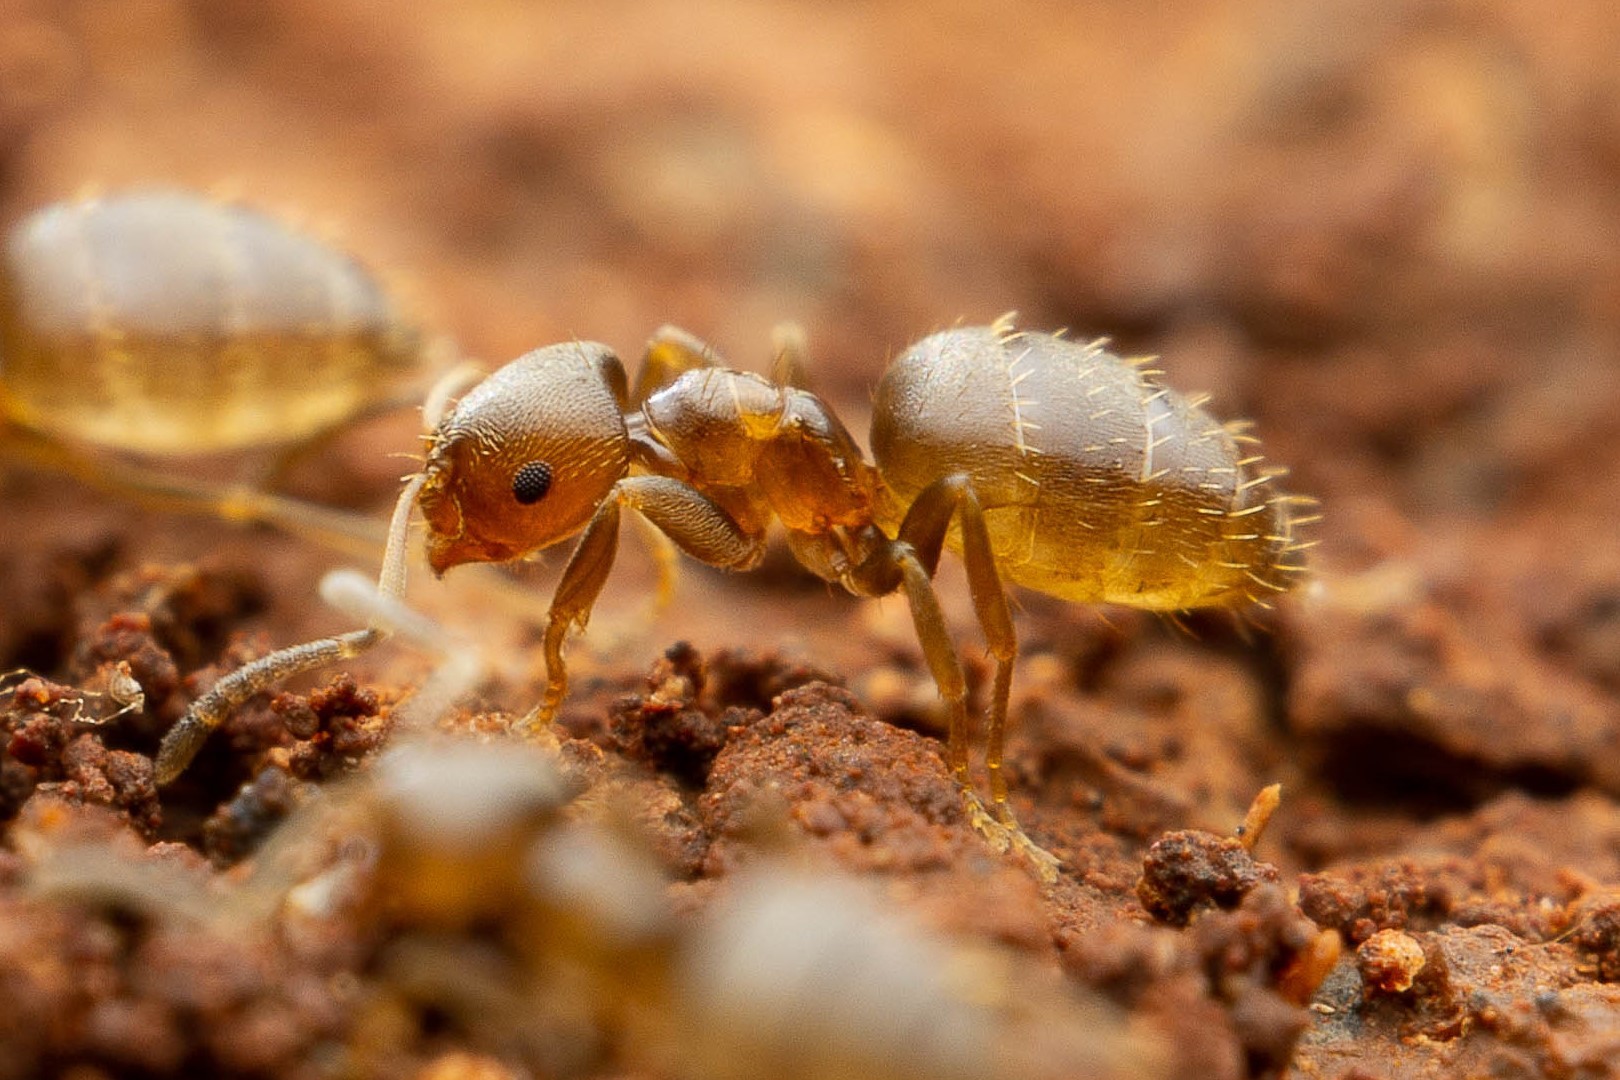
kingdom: Animalia
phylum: Arthropoda
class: Insecta
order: Hymenoptera
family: Formicidae
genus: Brachymyrmex
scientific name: Brachymyrmex obscurior
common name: Obscure rover ant
